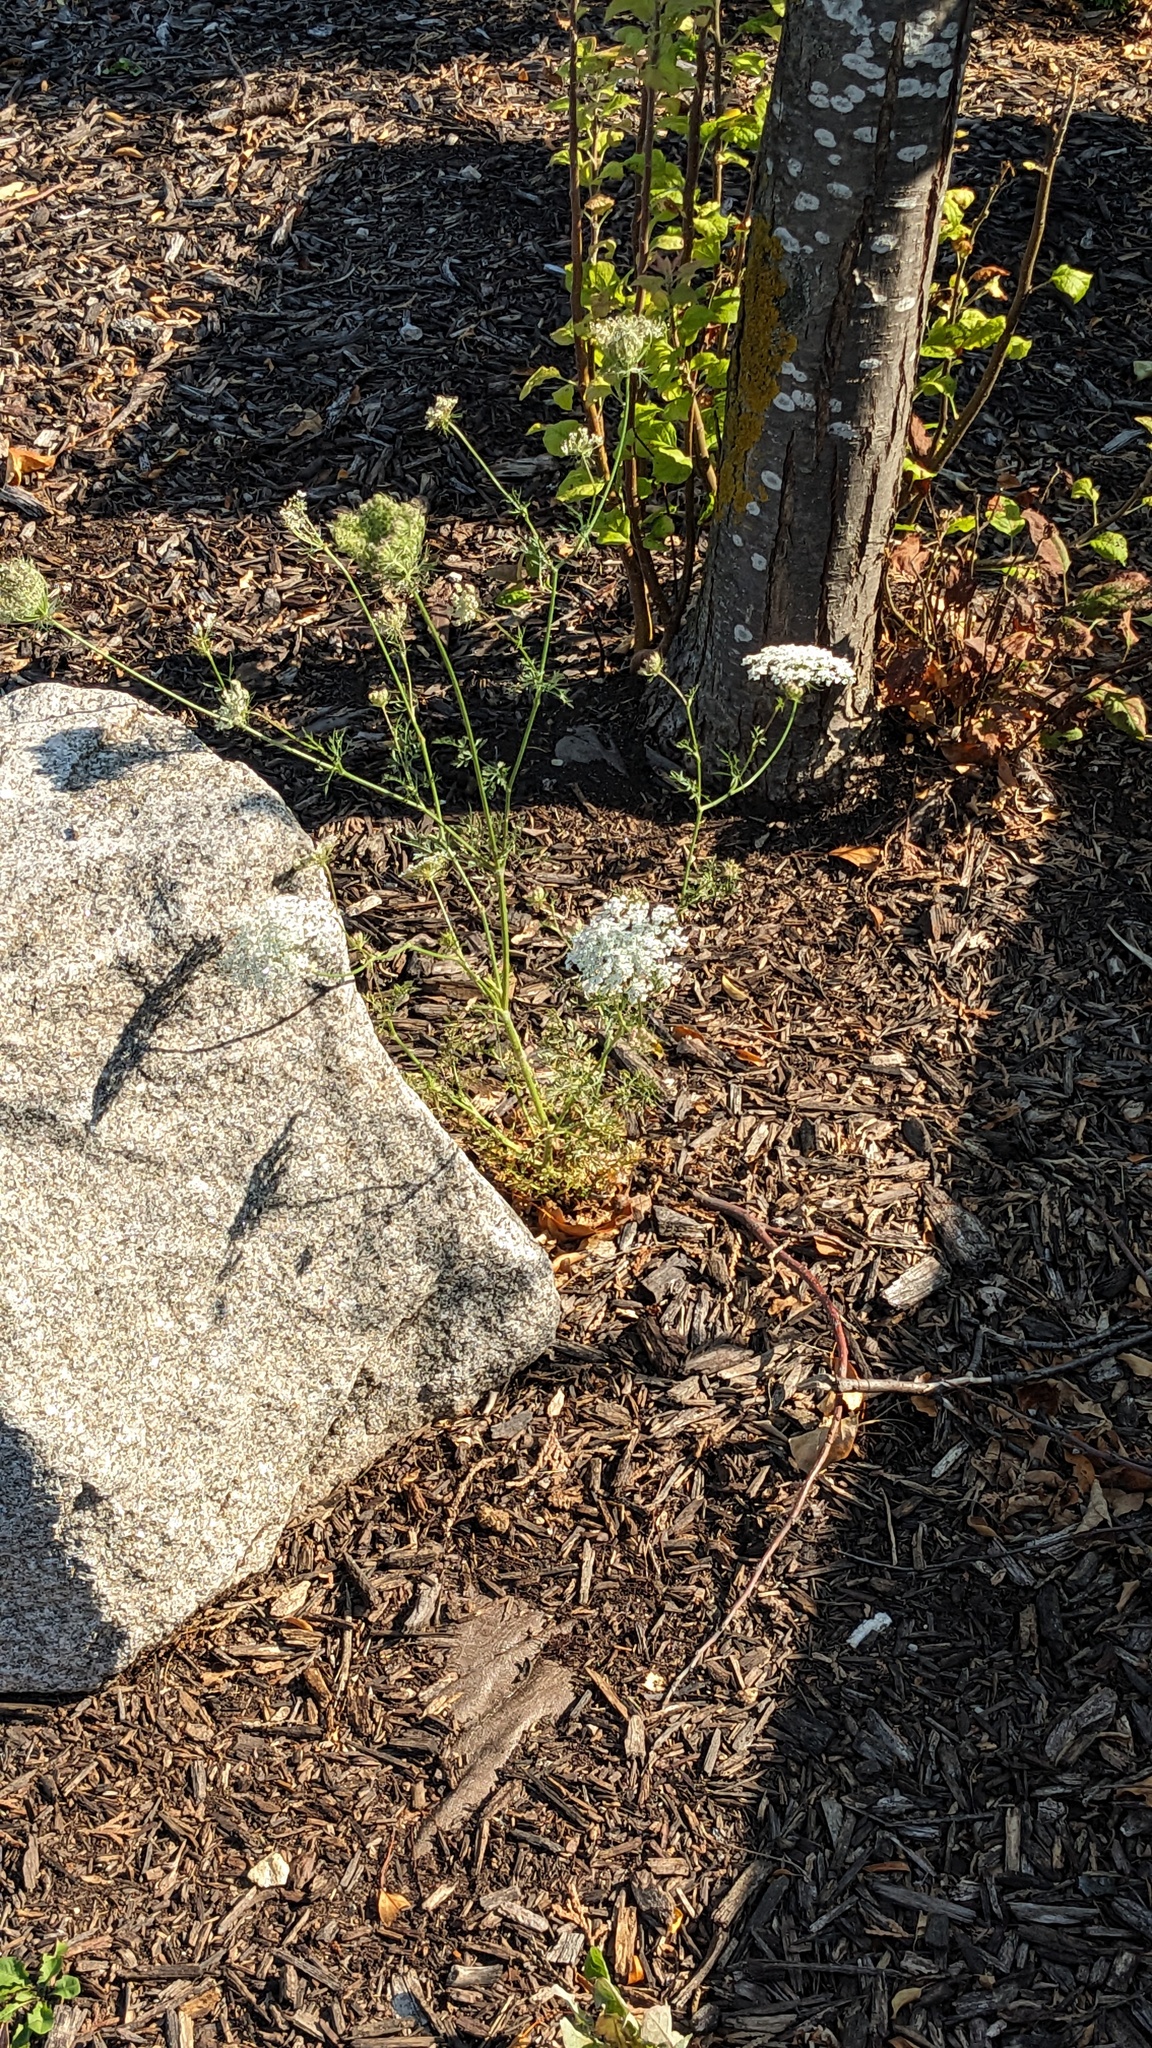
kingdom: Plantae
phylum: Tracheophyta
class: Magnoliopsida
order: Apiales
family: Apiaceae
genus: Daucus
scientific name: Daucus carota
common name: Wild carrot
